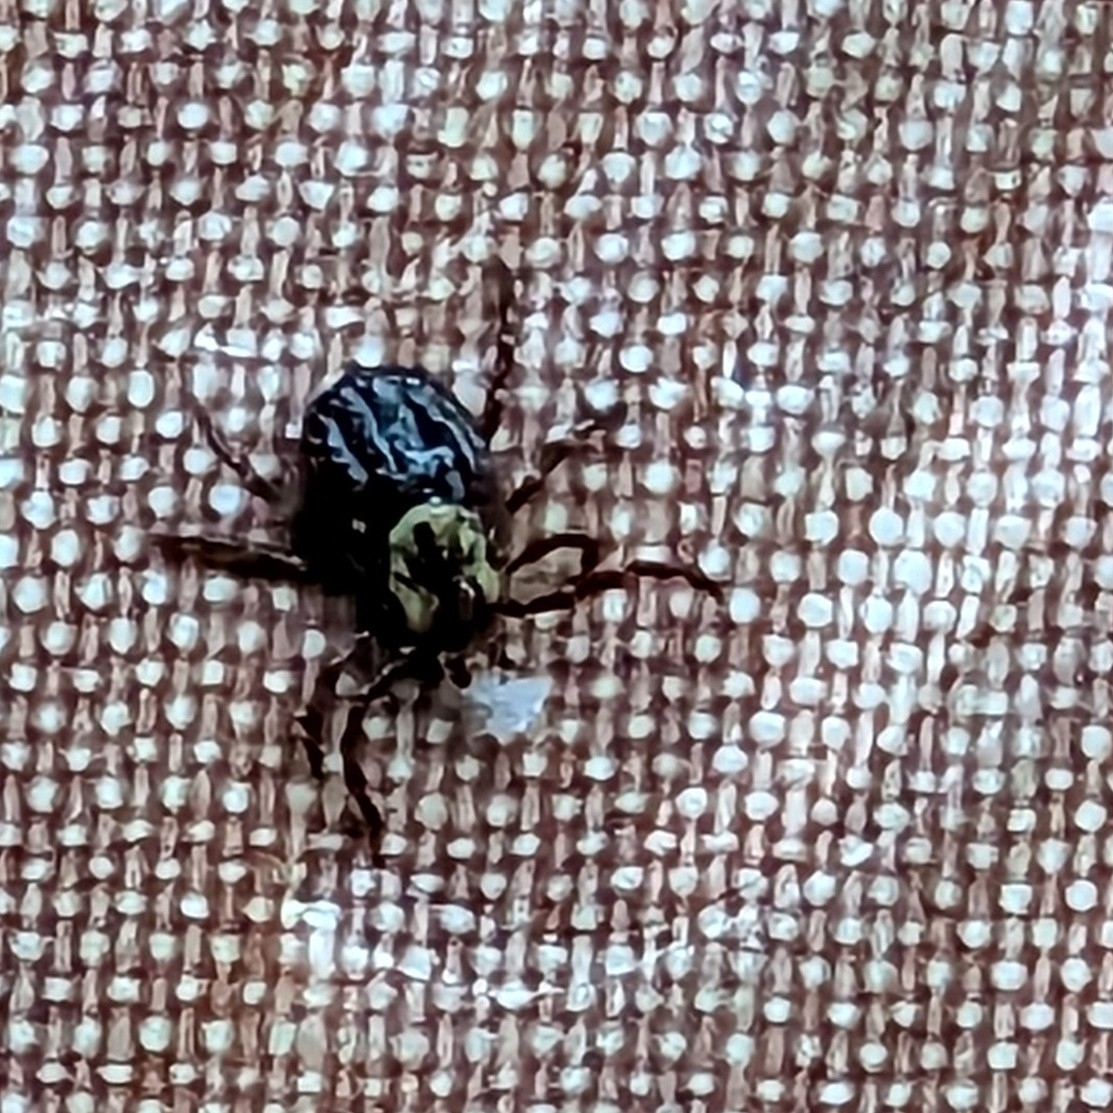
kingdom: Animalia
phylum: Arthropoda
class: Arachnida
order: Ixodida
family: Ixodidae
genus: Dermacentor
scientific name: Dermacentor variabilis
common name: American dog tick
